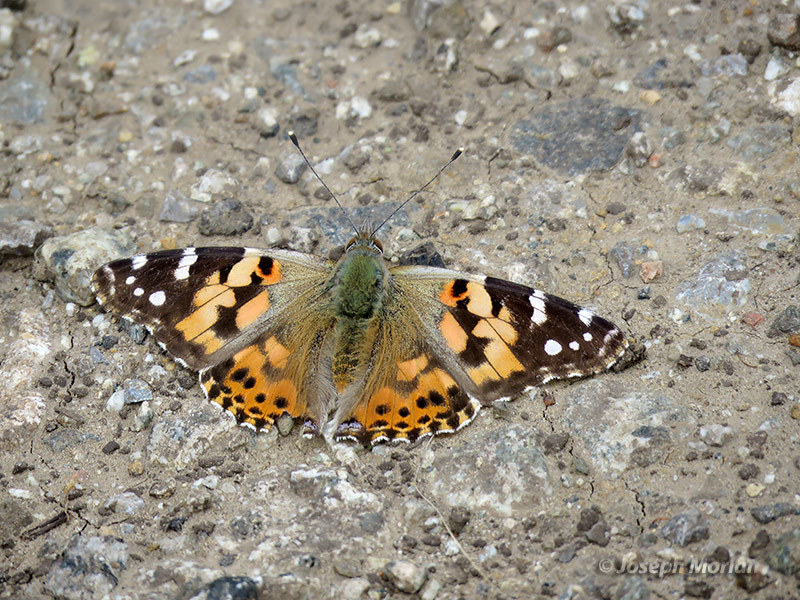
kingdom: Animalia
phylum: Arthropoda
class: Insecta
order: Lepidoptera
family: Nymphalidae
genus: Vanessa
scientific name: Vanessa cardui
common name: Painted lady
